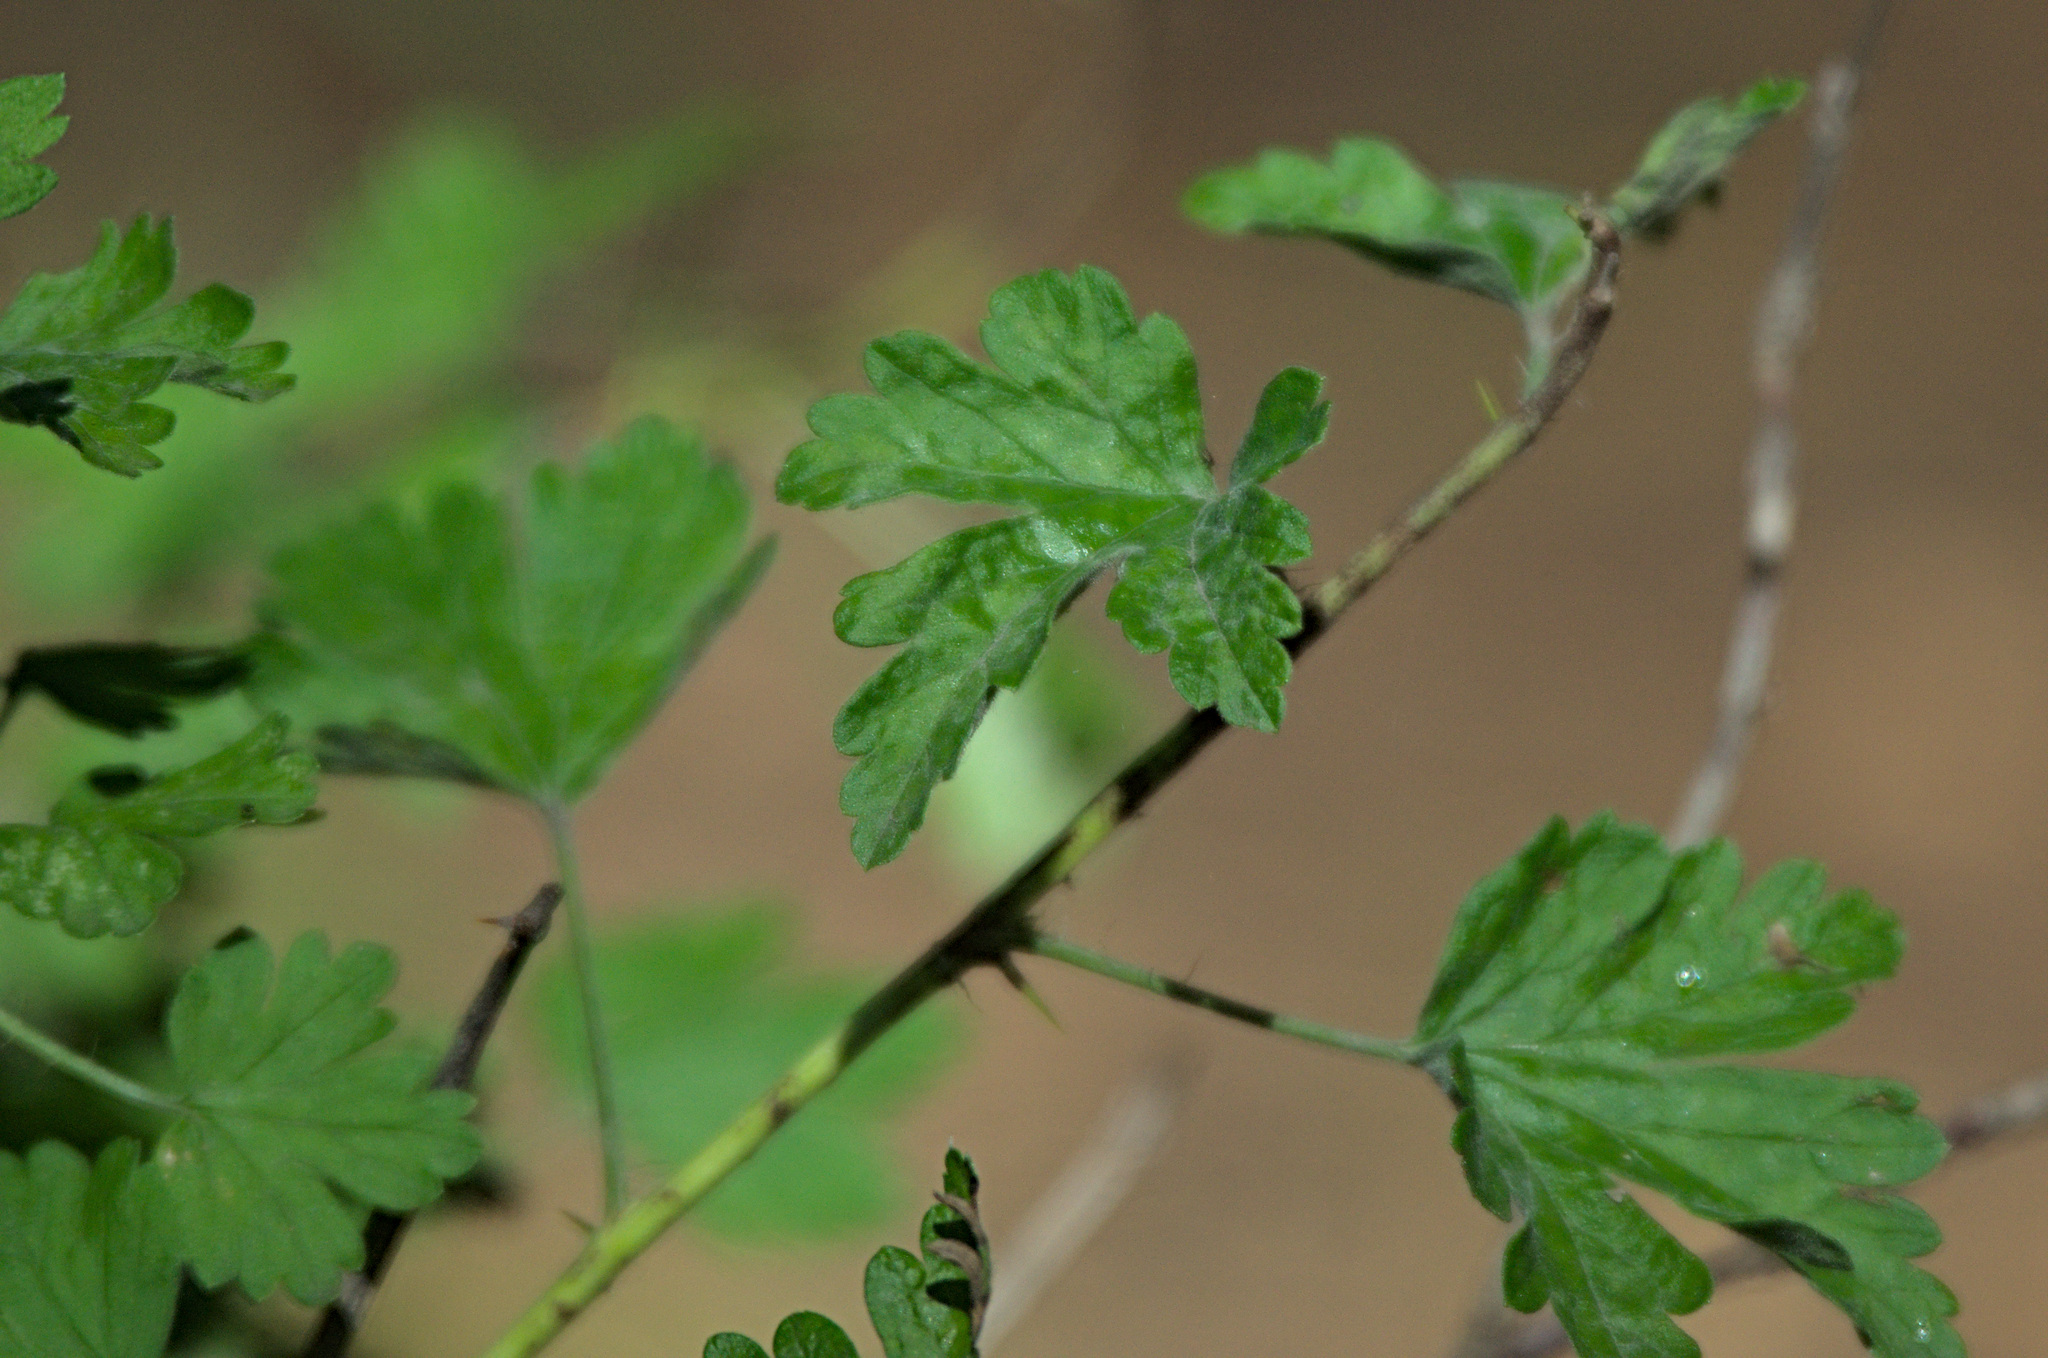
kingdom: Plantae
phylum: Tracheophyta
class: Magnoliopsida
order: Saxifragales
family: Grossulariaceae
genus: Ribes
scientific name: Ribes uva-crispa
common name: Gooseberry
